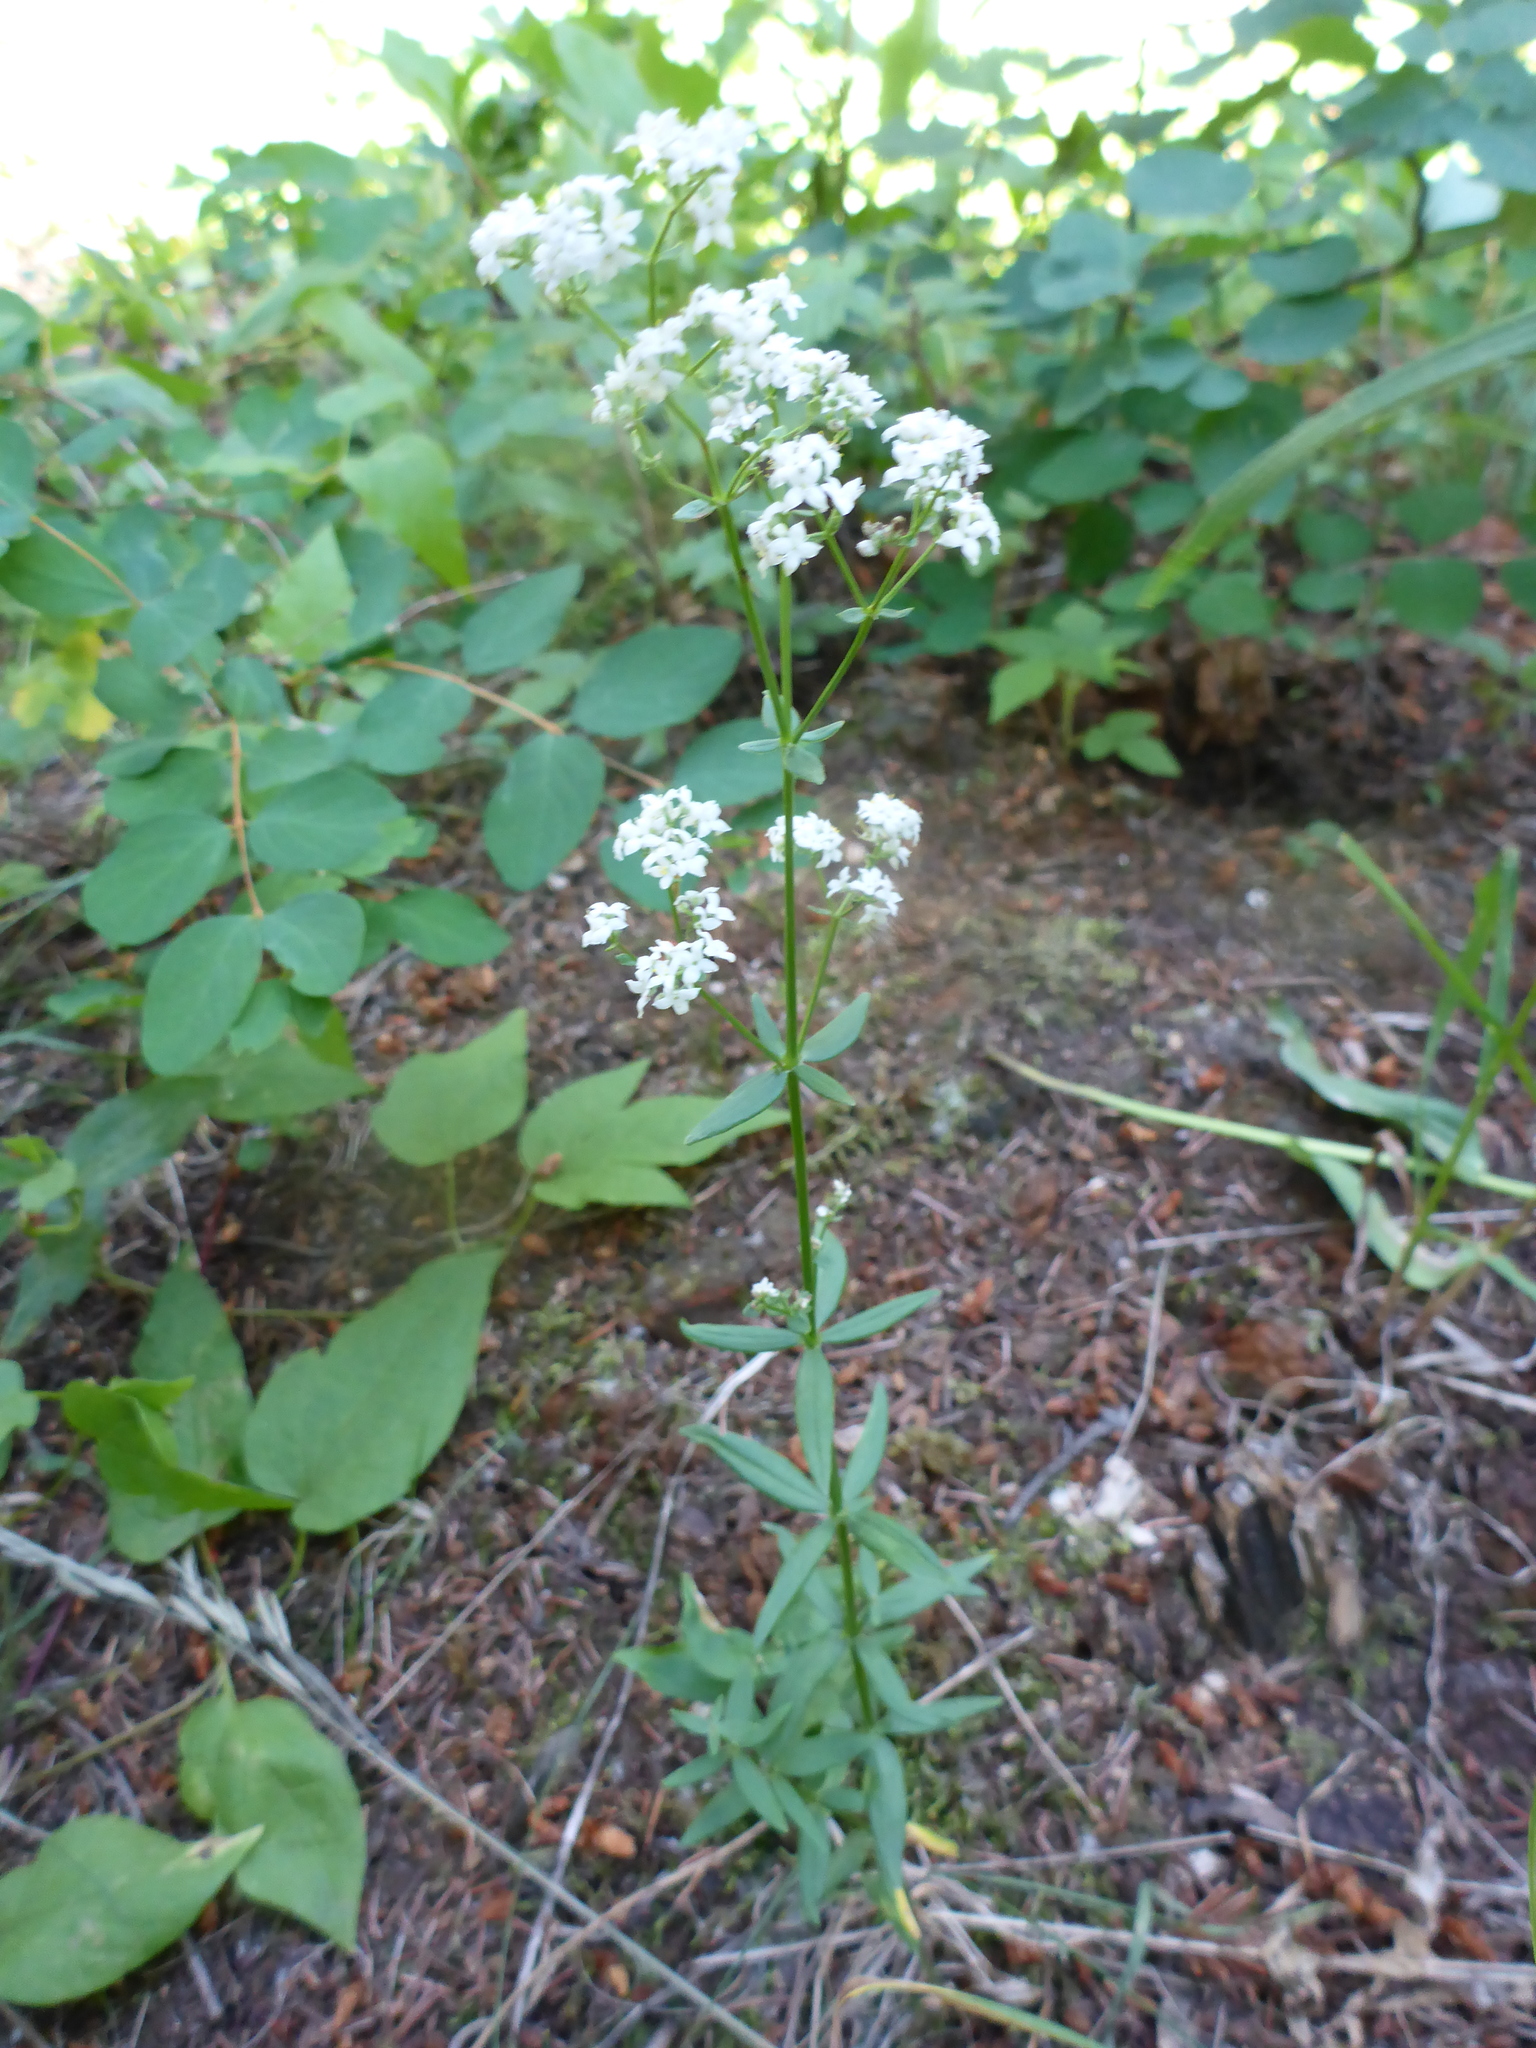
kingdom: Plantae
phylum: Tracheophyta
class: Magnoliopsida
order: Gentianales
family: Rubiaceae
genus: Galium
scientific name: Galium boreale
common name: Northern bedstraw
